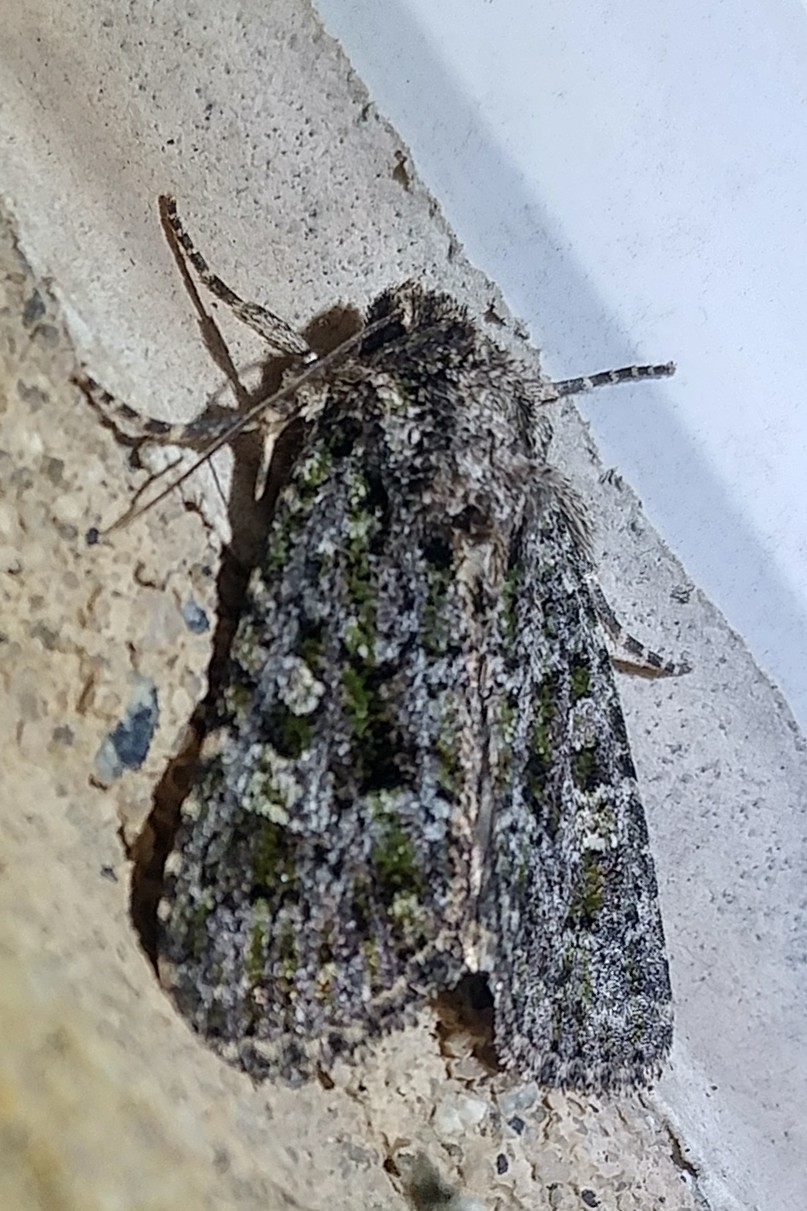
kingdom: Animalia
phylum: Arthropoda
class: Insecta
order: Lepidoptera
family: Noctuidae
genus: Aseptis
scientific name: Aseptis marina
